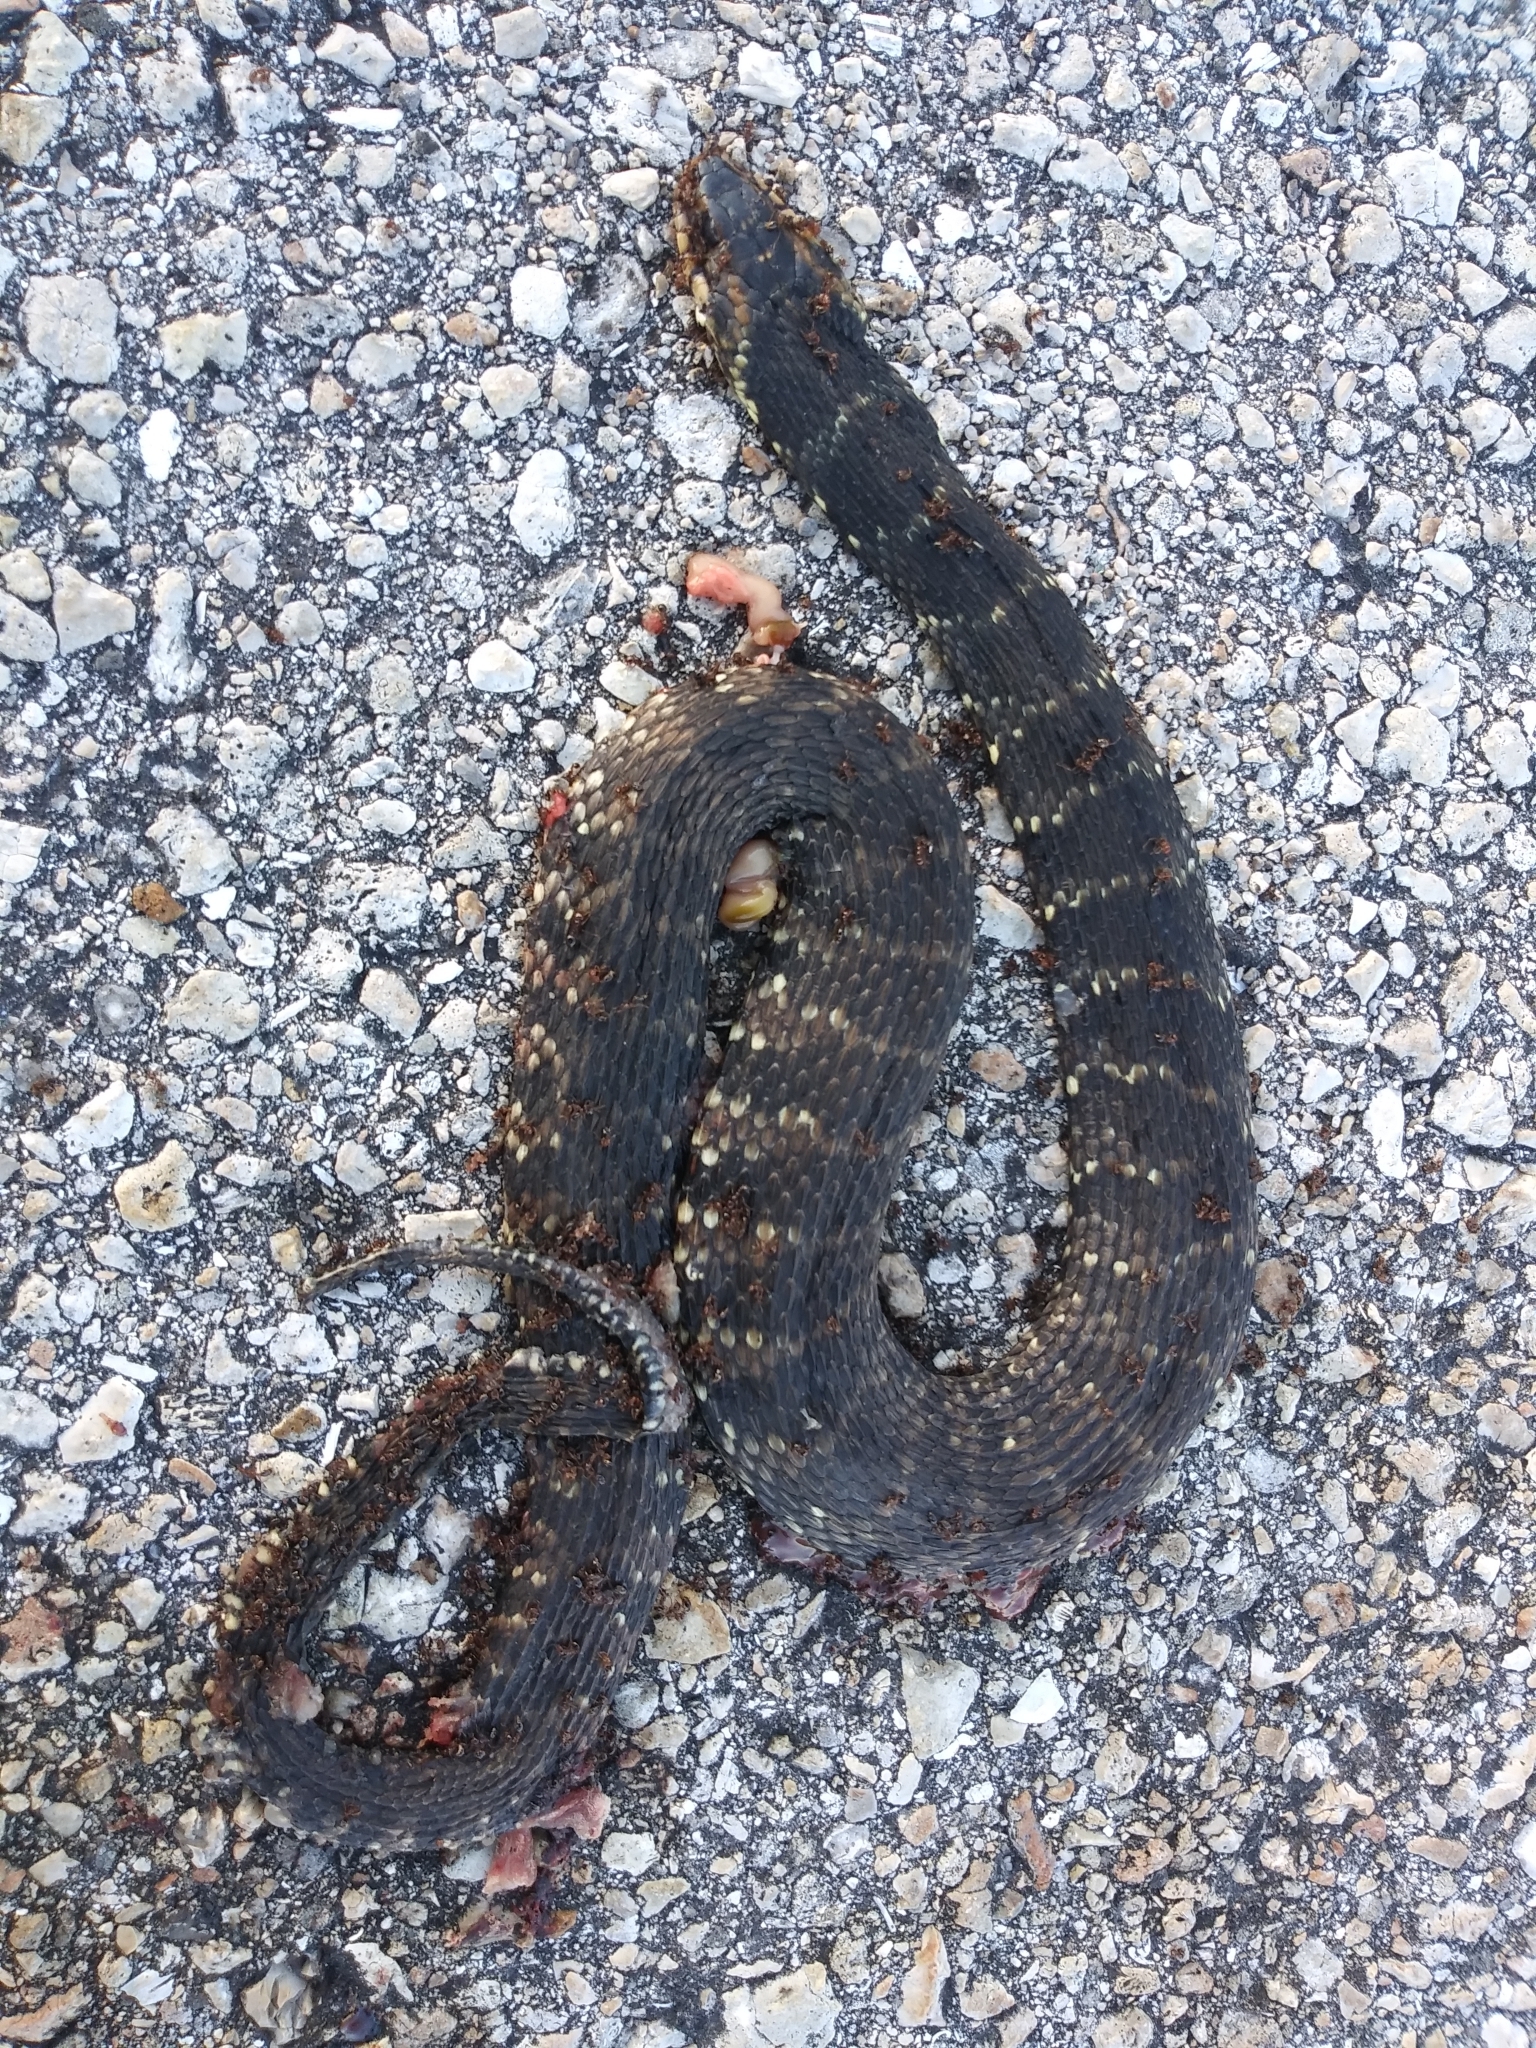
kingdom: Animalia
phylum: Chordata
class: Squamata
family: Colubridae
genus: Nerodia
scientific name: Nerodia fasciata
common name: Southern water snake
